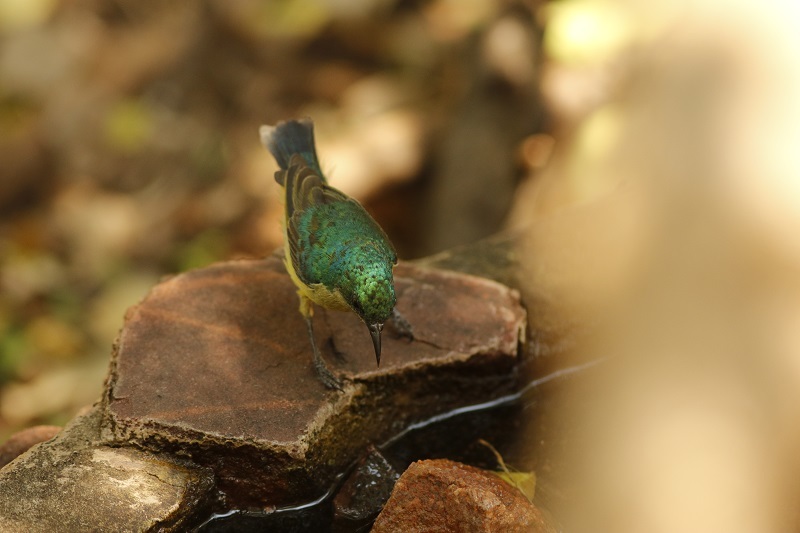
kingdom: Animalia
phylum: Chordata
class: Aves
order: Passeriformes
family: Nectariniidae
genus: Hedydipna
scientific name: Hedydipna collaris
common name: Collared sunbird
